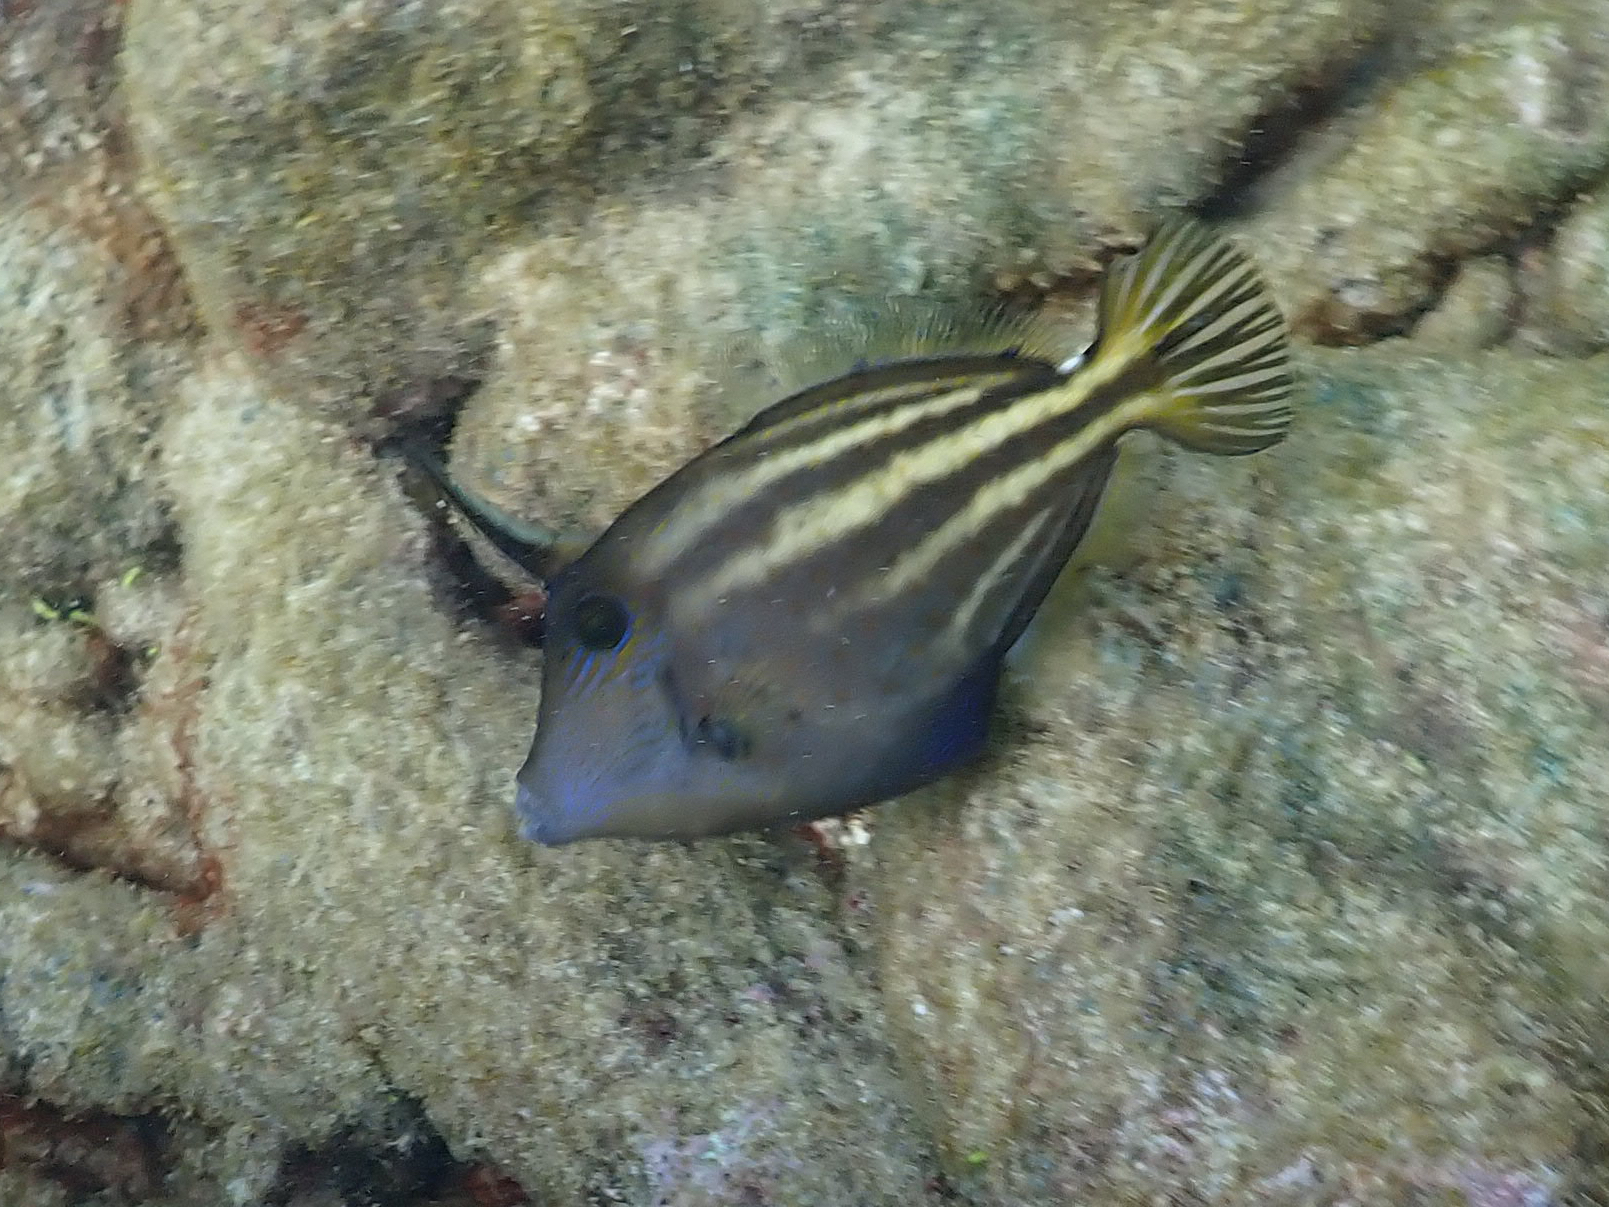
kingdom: Animalia
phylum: Chordata
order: Tetraodontiformes
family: Monacanthidae
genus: Cantherhines
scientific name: Cantherhines pullus
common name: Orangespotted filefish
